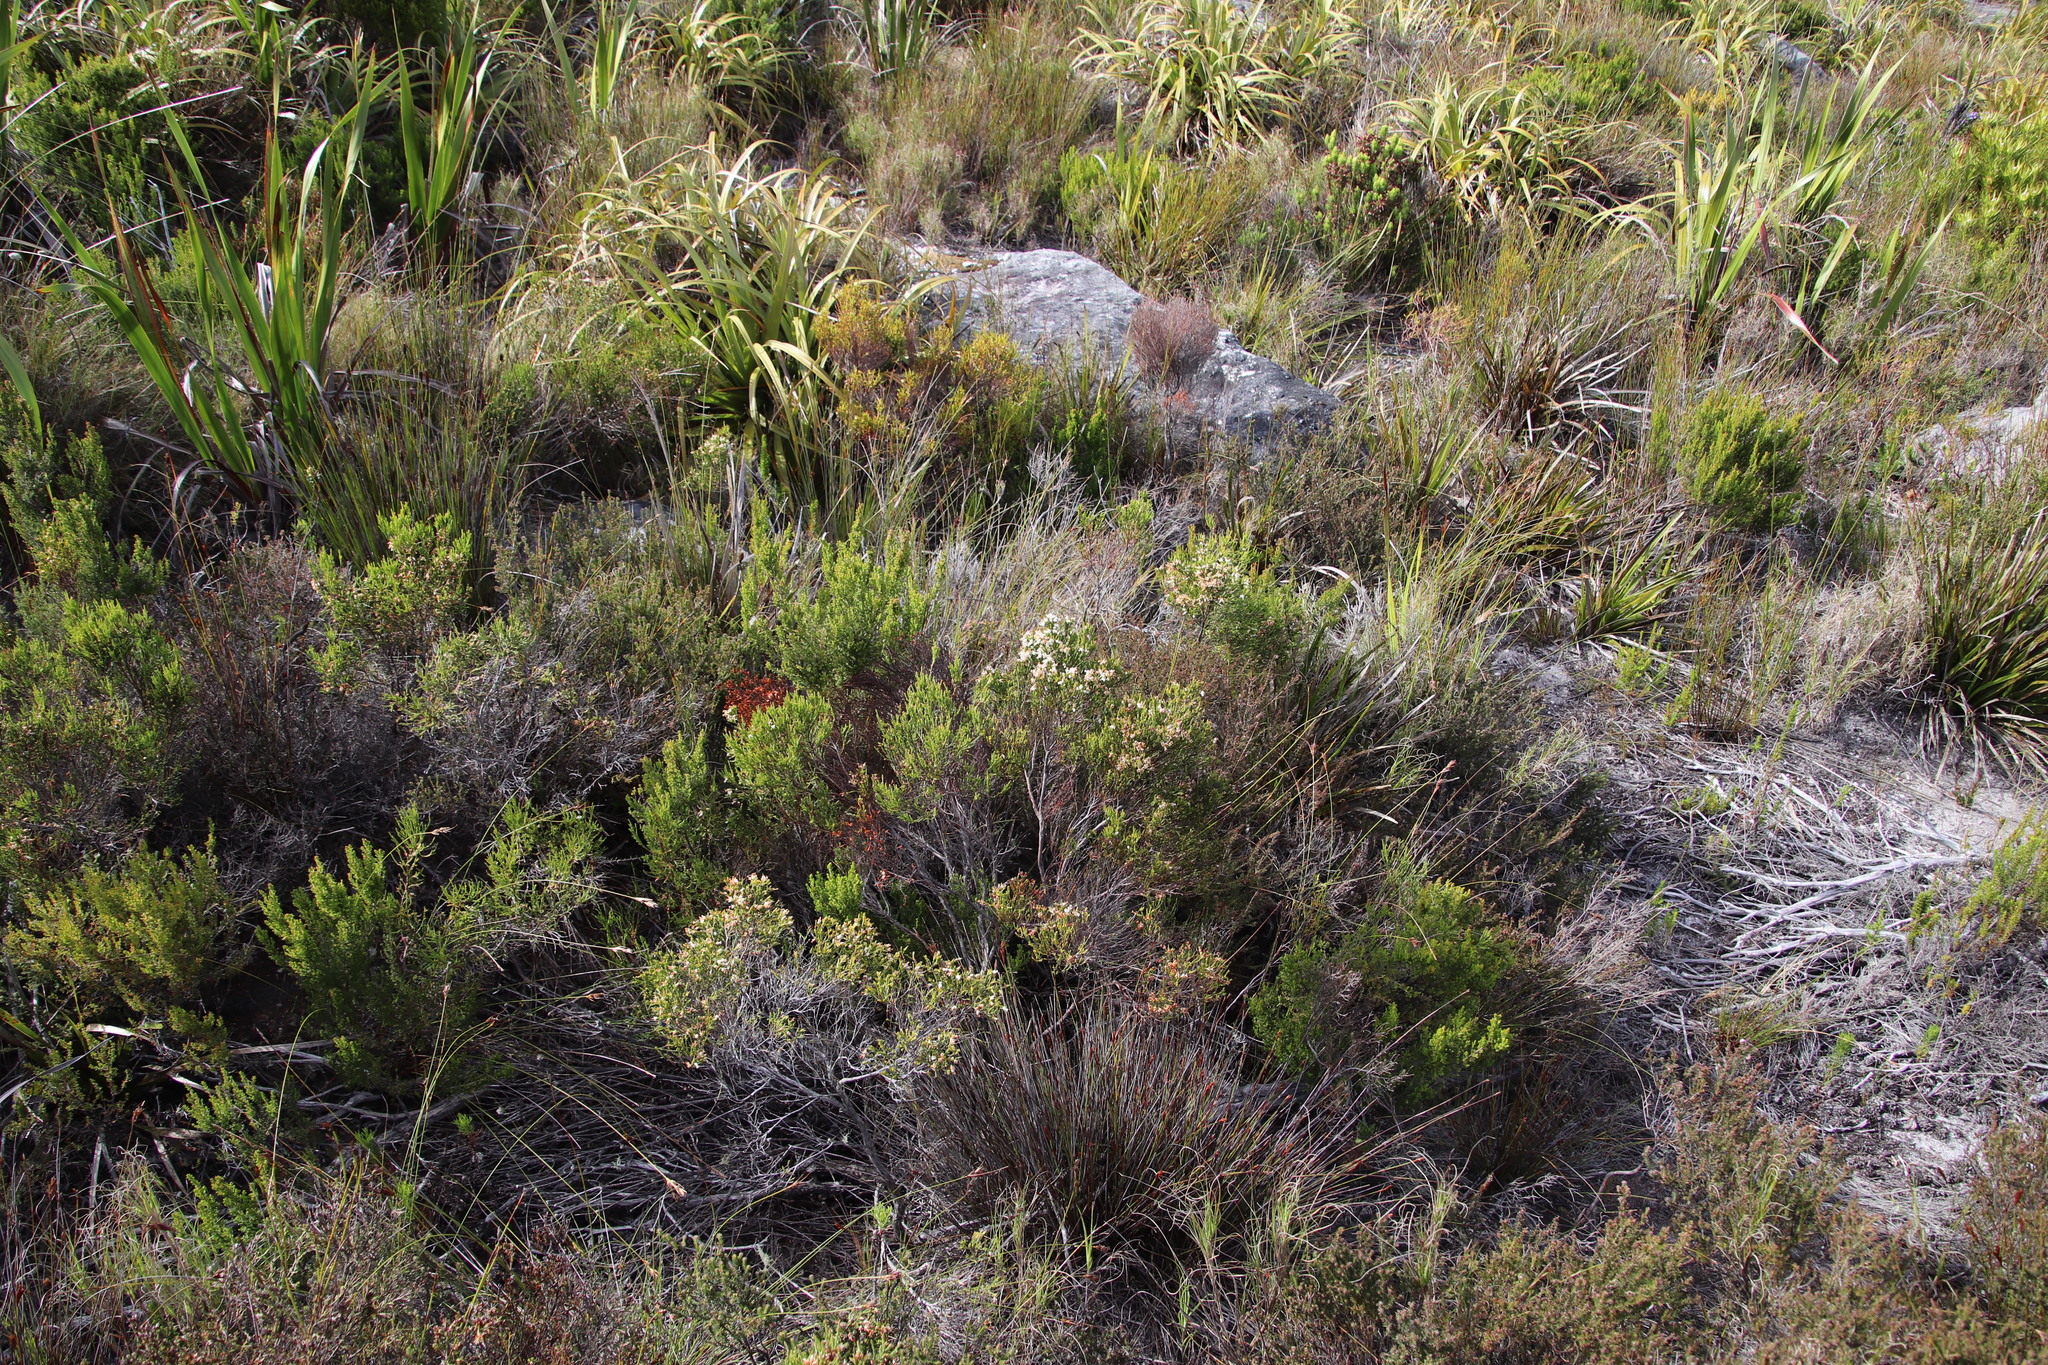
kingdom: Plantae
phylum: Tracheophyta
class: Magnoliopsida
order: Ericales
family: Ericaceae
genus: Erica
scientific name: Erica lutea
